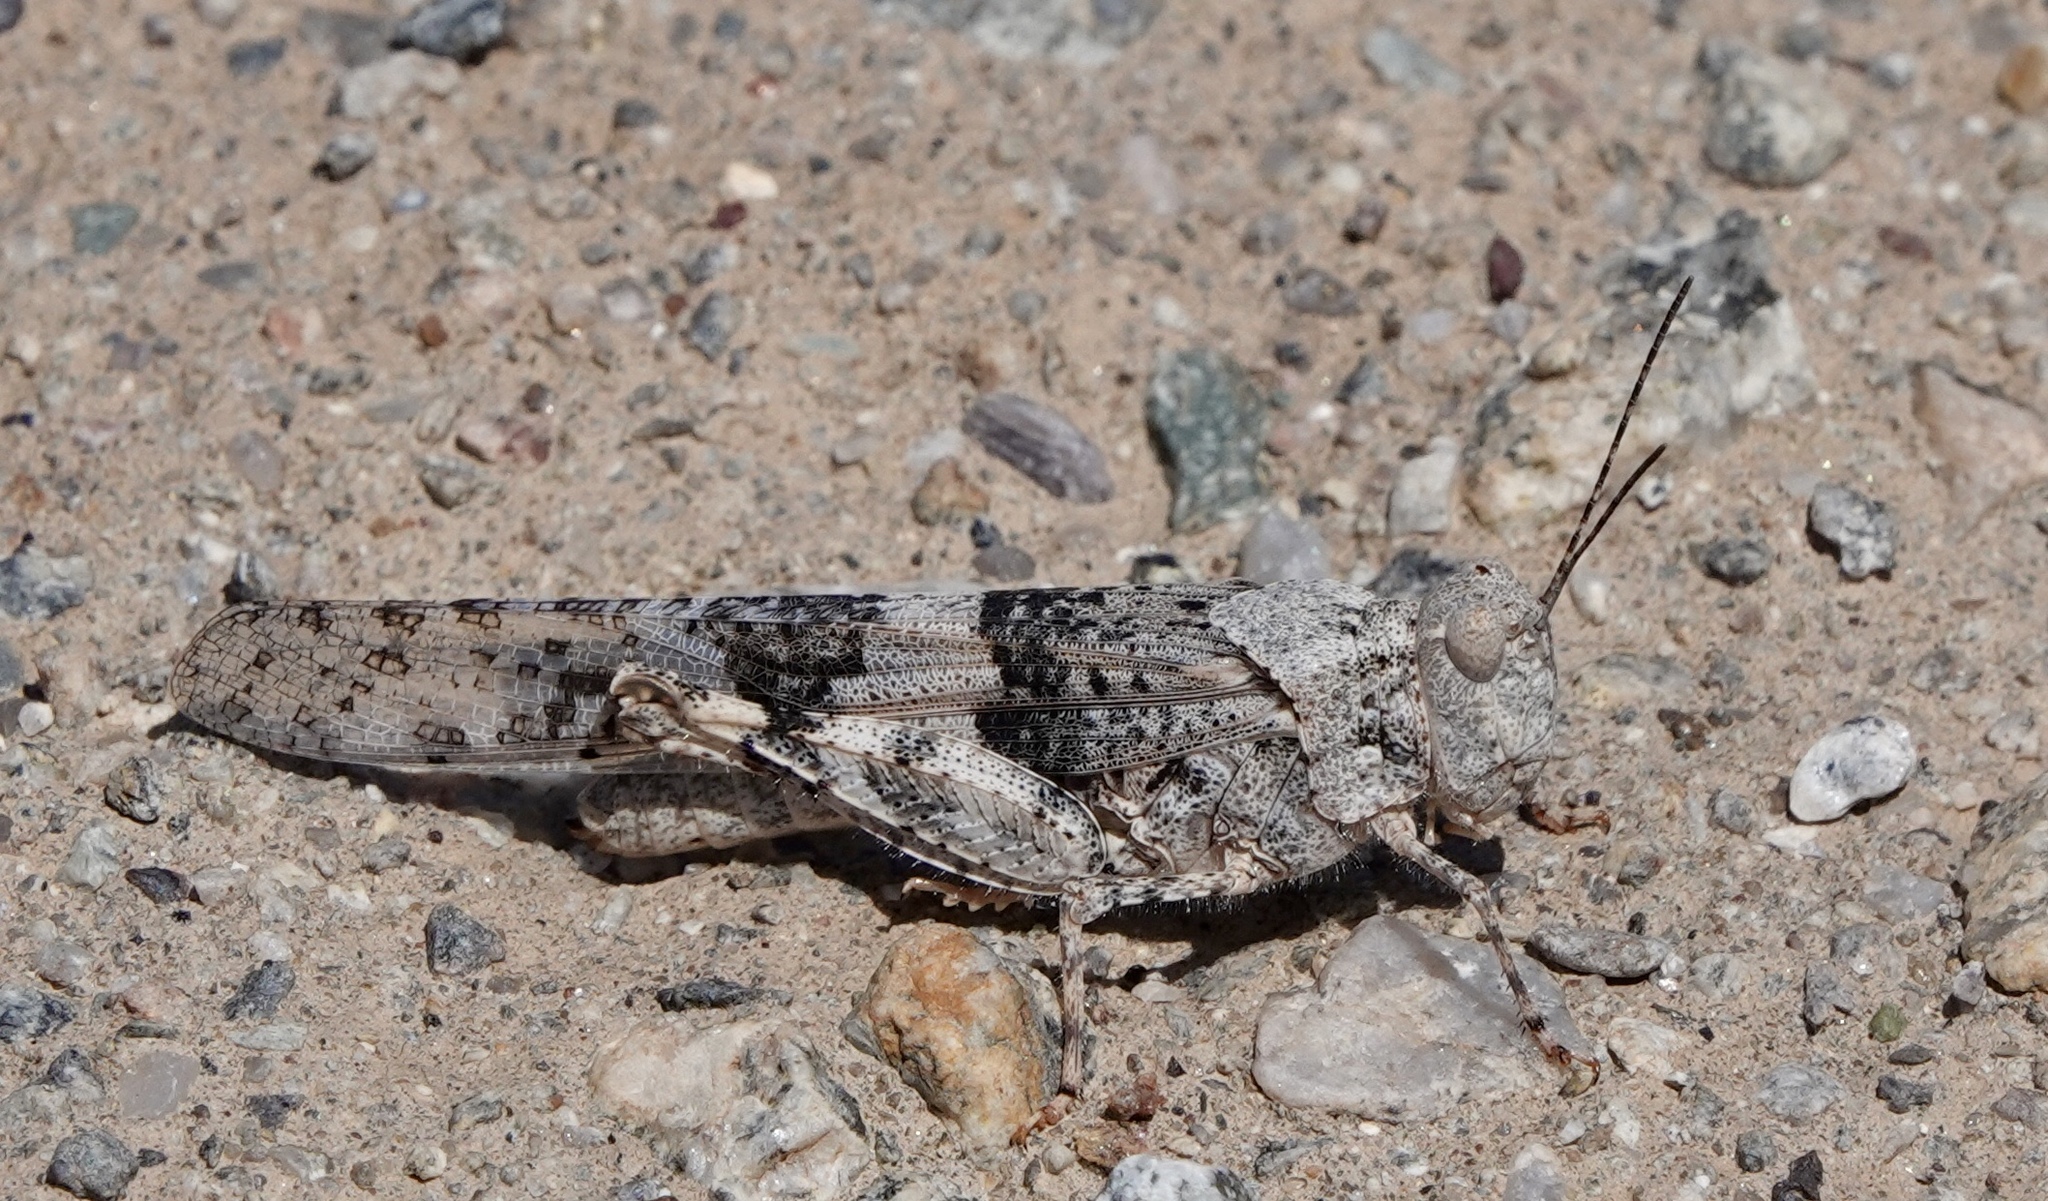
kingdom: Animalia
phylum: Arthropoda
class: Insecta
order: Orthoptera
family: Acrididae
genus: Trimerotropis
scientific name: Trimerotropis pallidipennis
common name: Pallid-winged grasshopper
